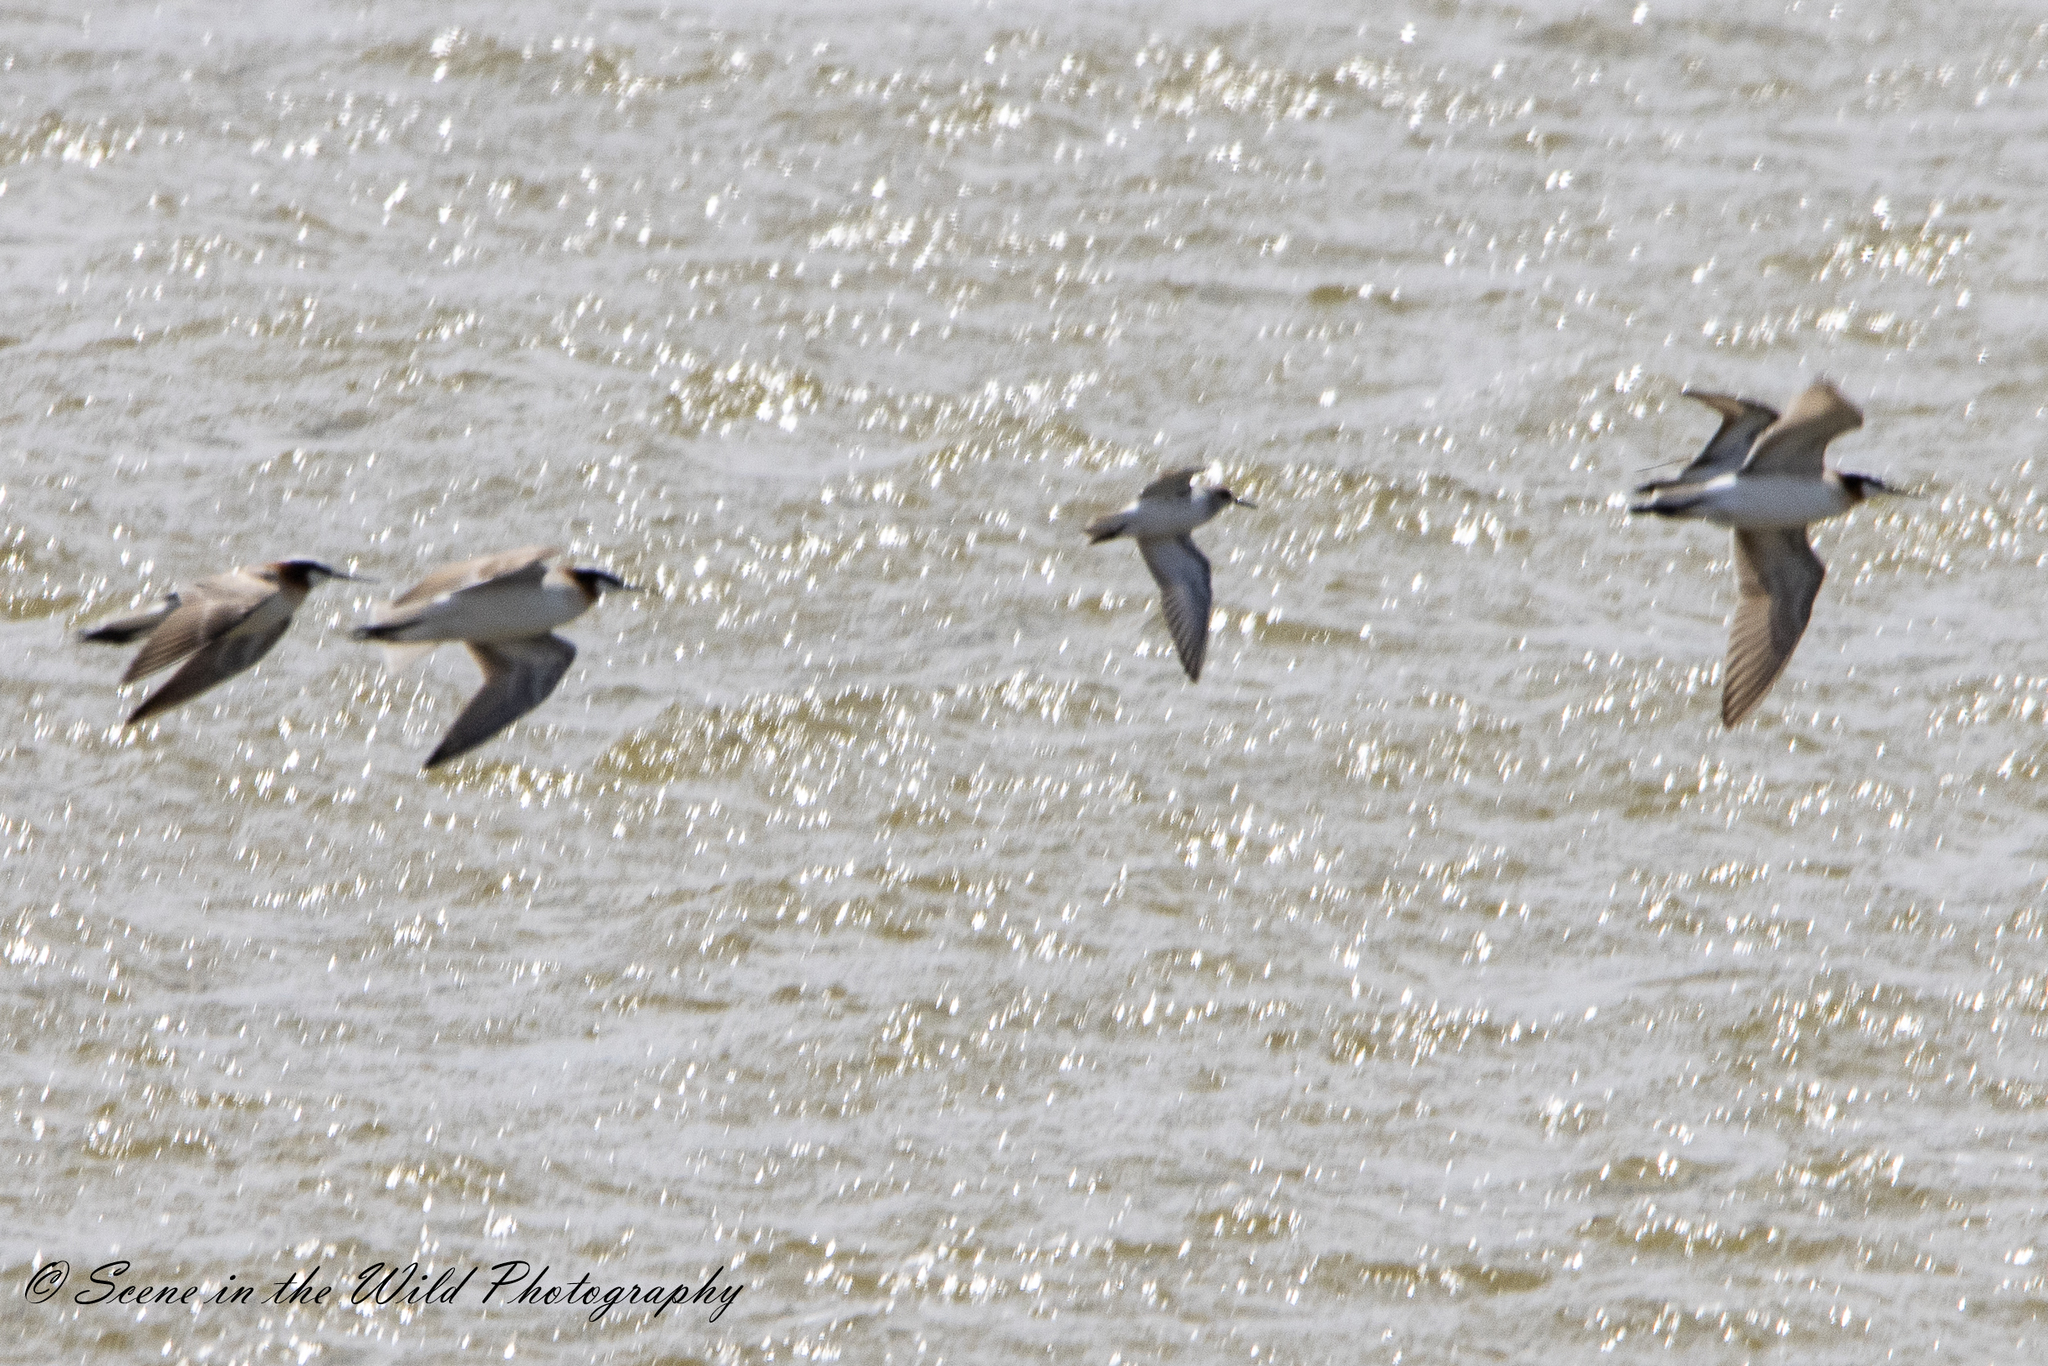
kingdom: Animalia
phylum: Chordata
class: Aves
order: Charadriiformes
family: Scolopacidae
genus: Phalaropus
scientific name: Phalaropus tricolor
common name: Wilson's phalarope
